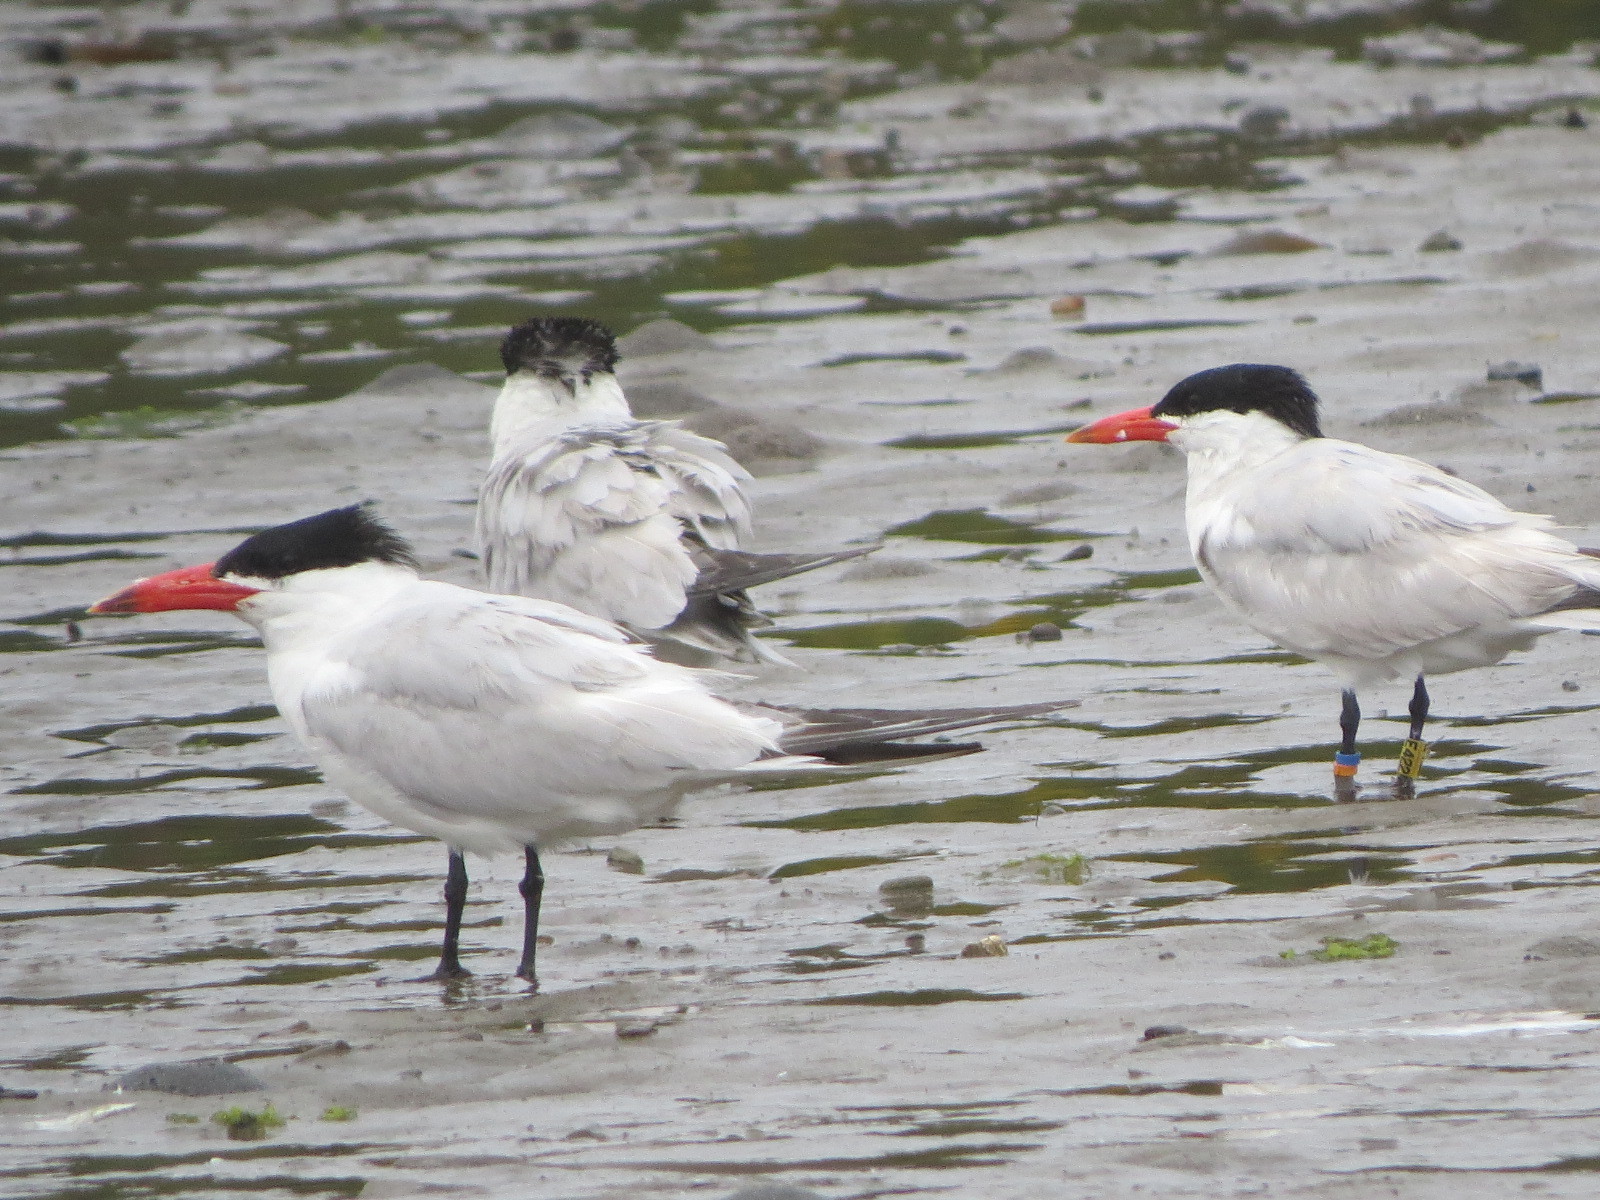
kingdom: Animalia
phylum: Chordata
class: Aves
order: Charadriiformes
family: Laridae
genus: Hydroprogne
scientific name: Hydroprogne caspia
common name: Caspian tern
